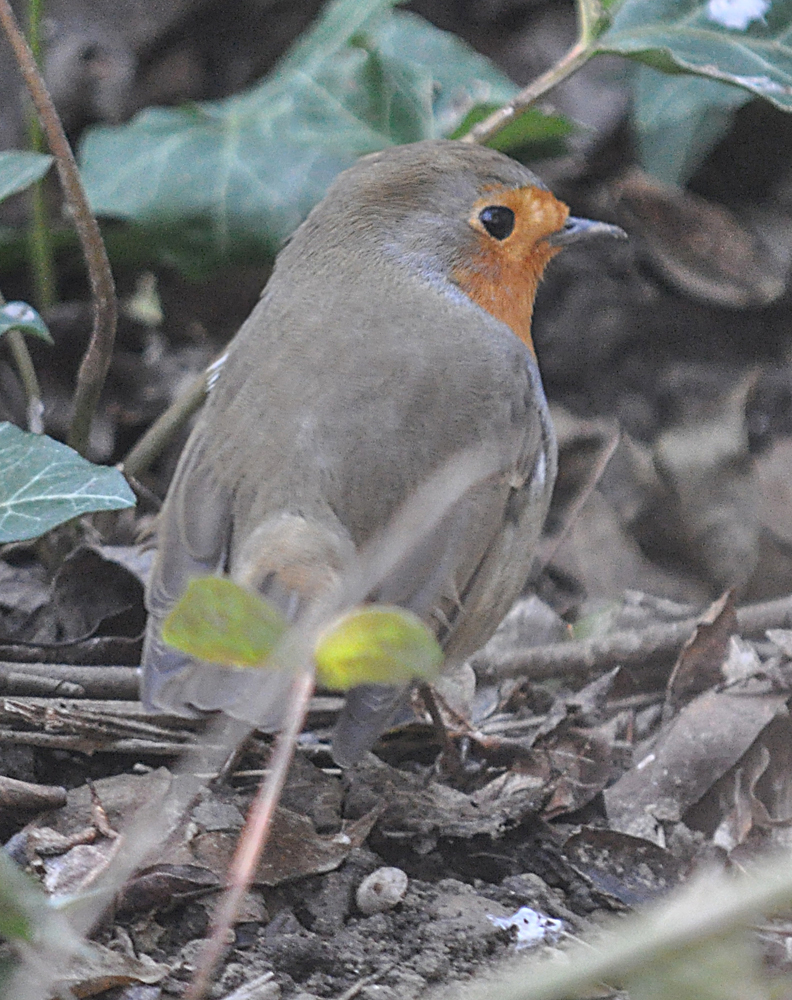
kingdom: Animalia
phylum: Chordata
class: Aves
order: Passeriformes
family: Muscicapidae
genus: Erithacus
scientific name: Erithacus rubecula
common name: European robin
